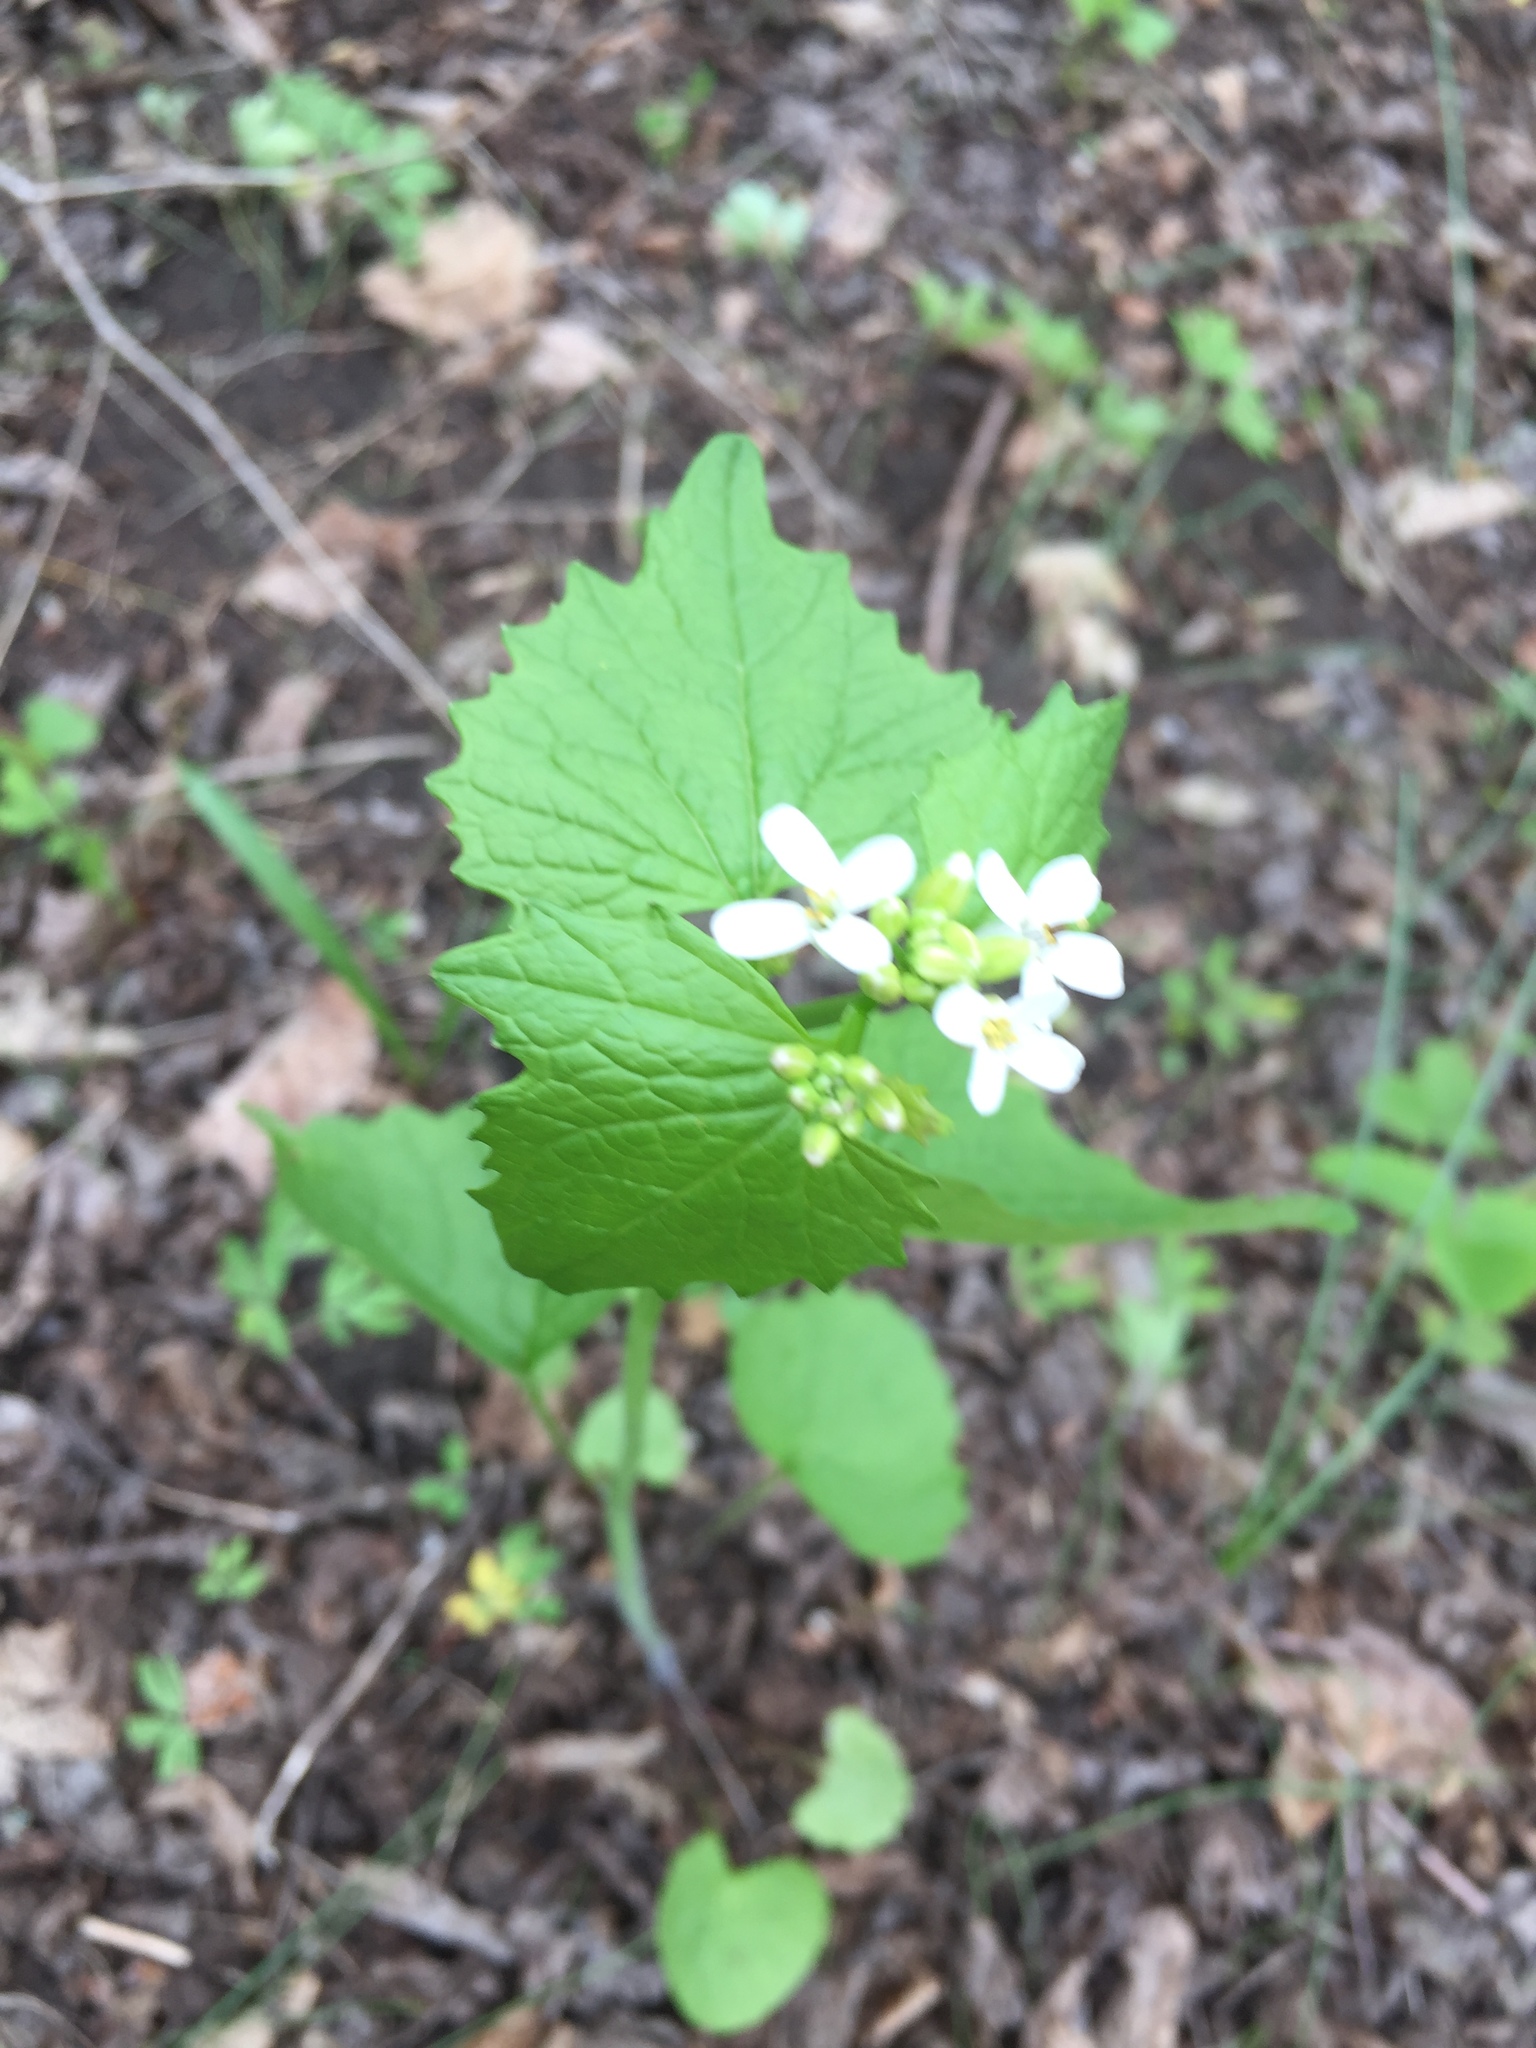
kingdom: Plantae
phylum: Tracheophyta
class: Magnoliopsida
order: Brassicales
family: Brassicaceae
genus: Alliaria
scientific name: Alliaria petiolata
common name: Garlic mustard
